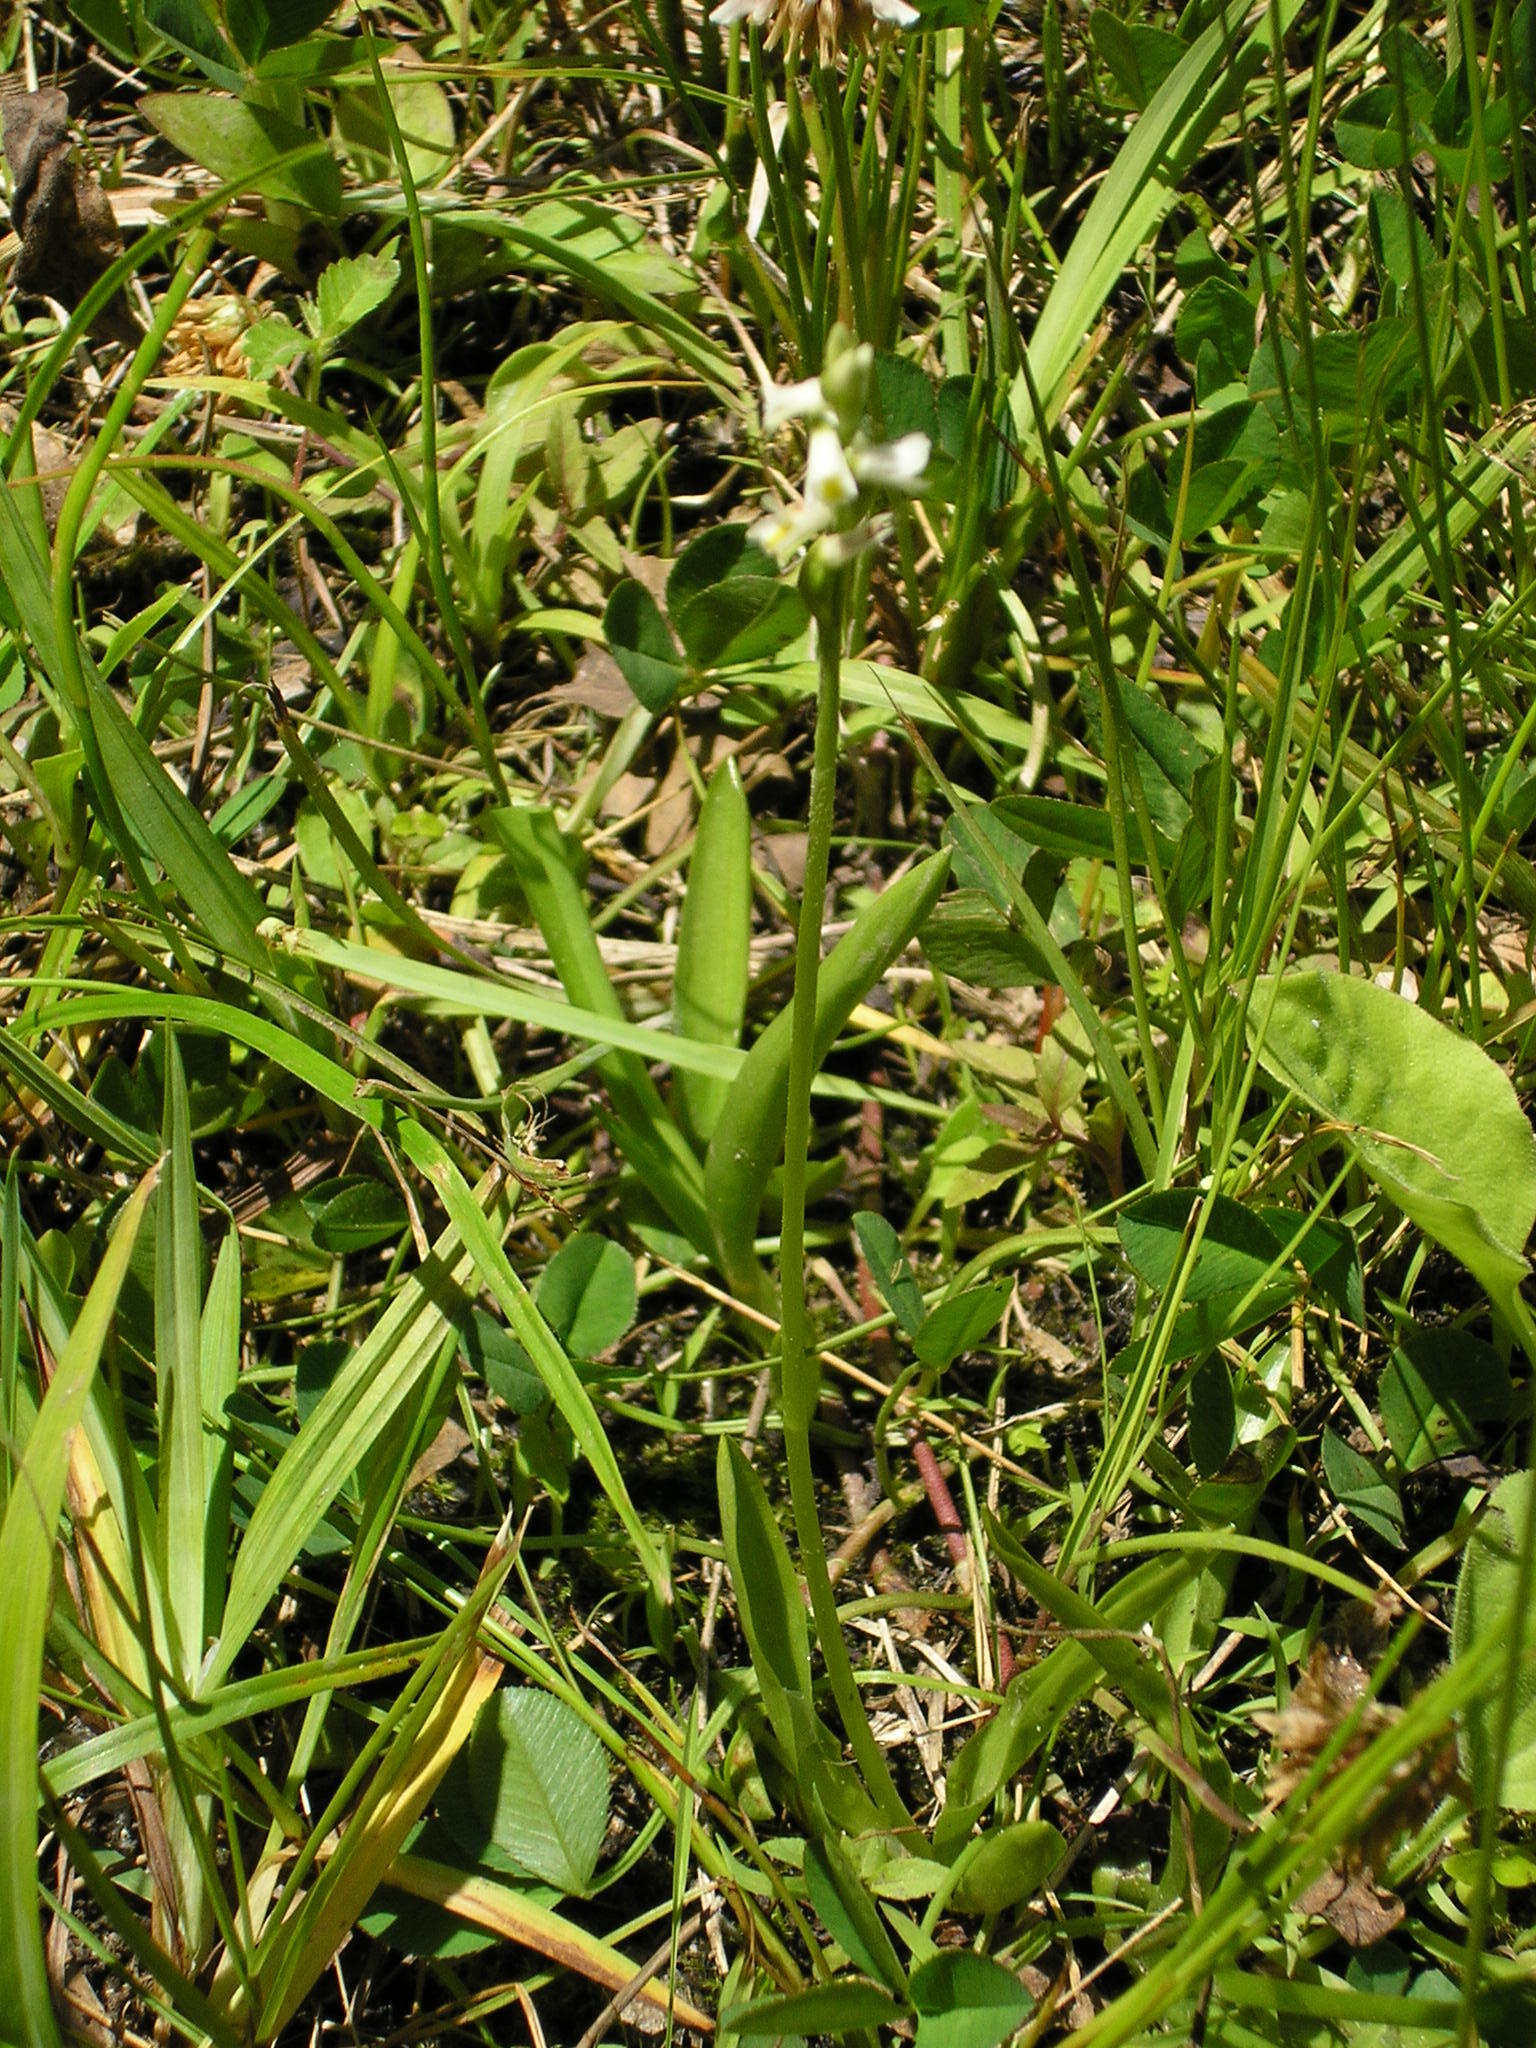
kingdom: Plantae
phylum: Tracheophyta
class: Liliopsida
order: Asparagales
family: Orchidaceae
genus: Spiranthes
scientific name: Spiranthes lucida
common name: Broad-leaved ladies'-tresses
